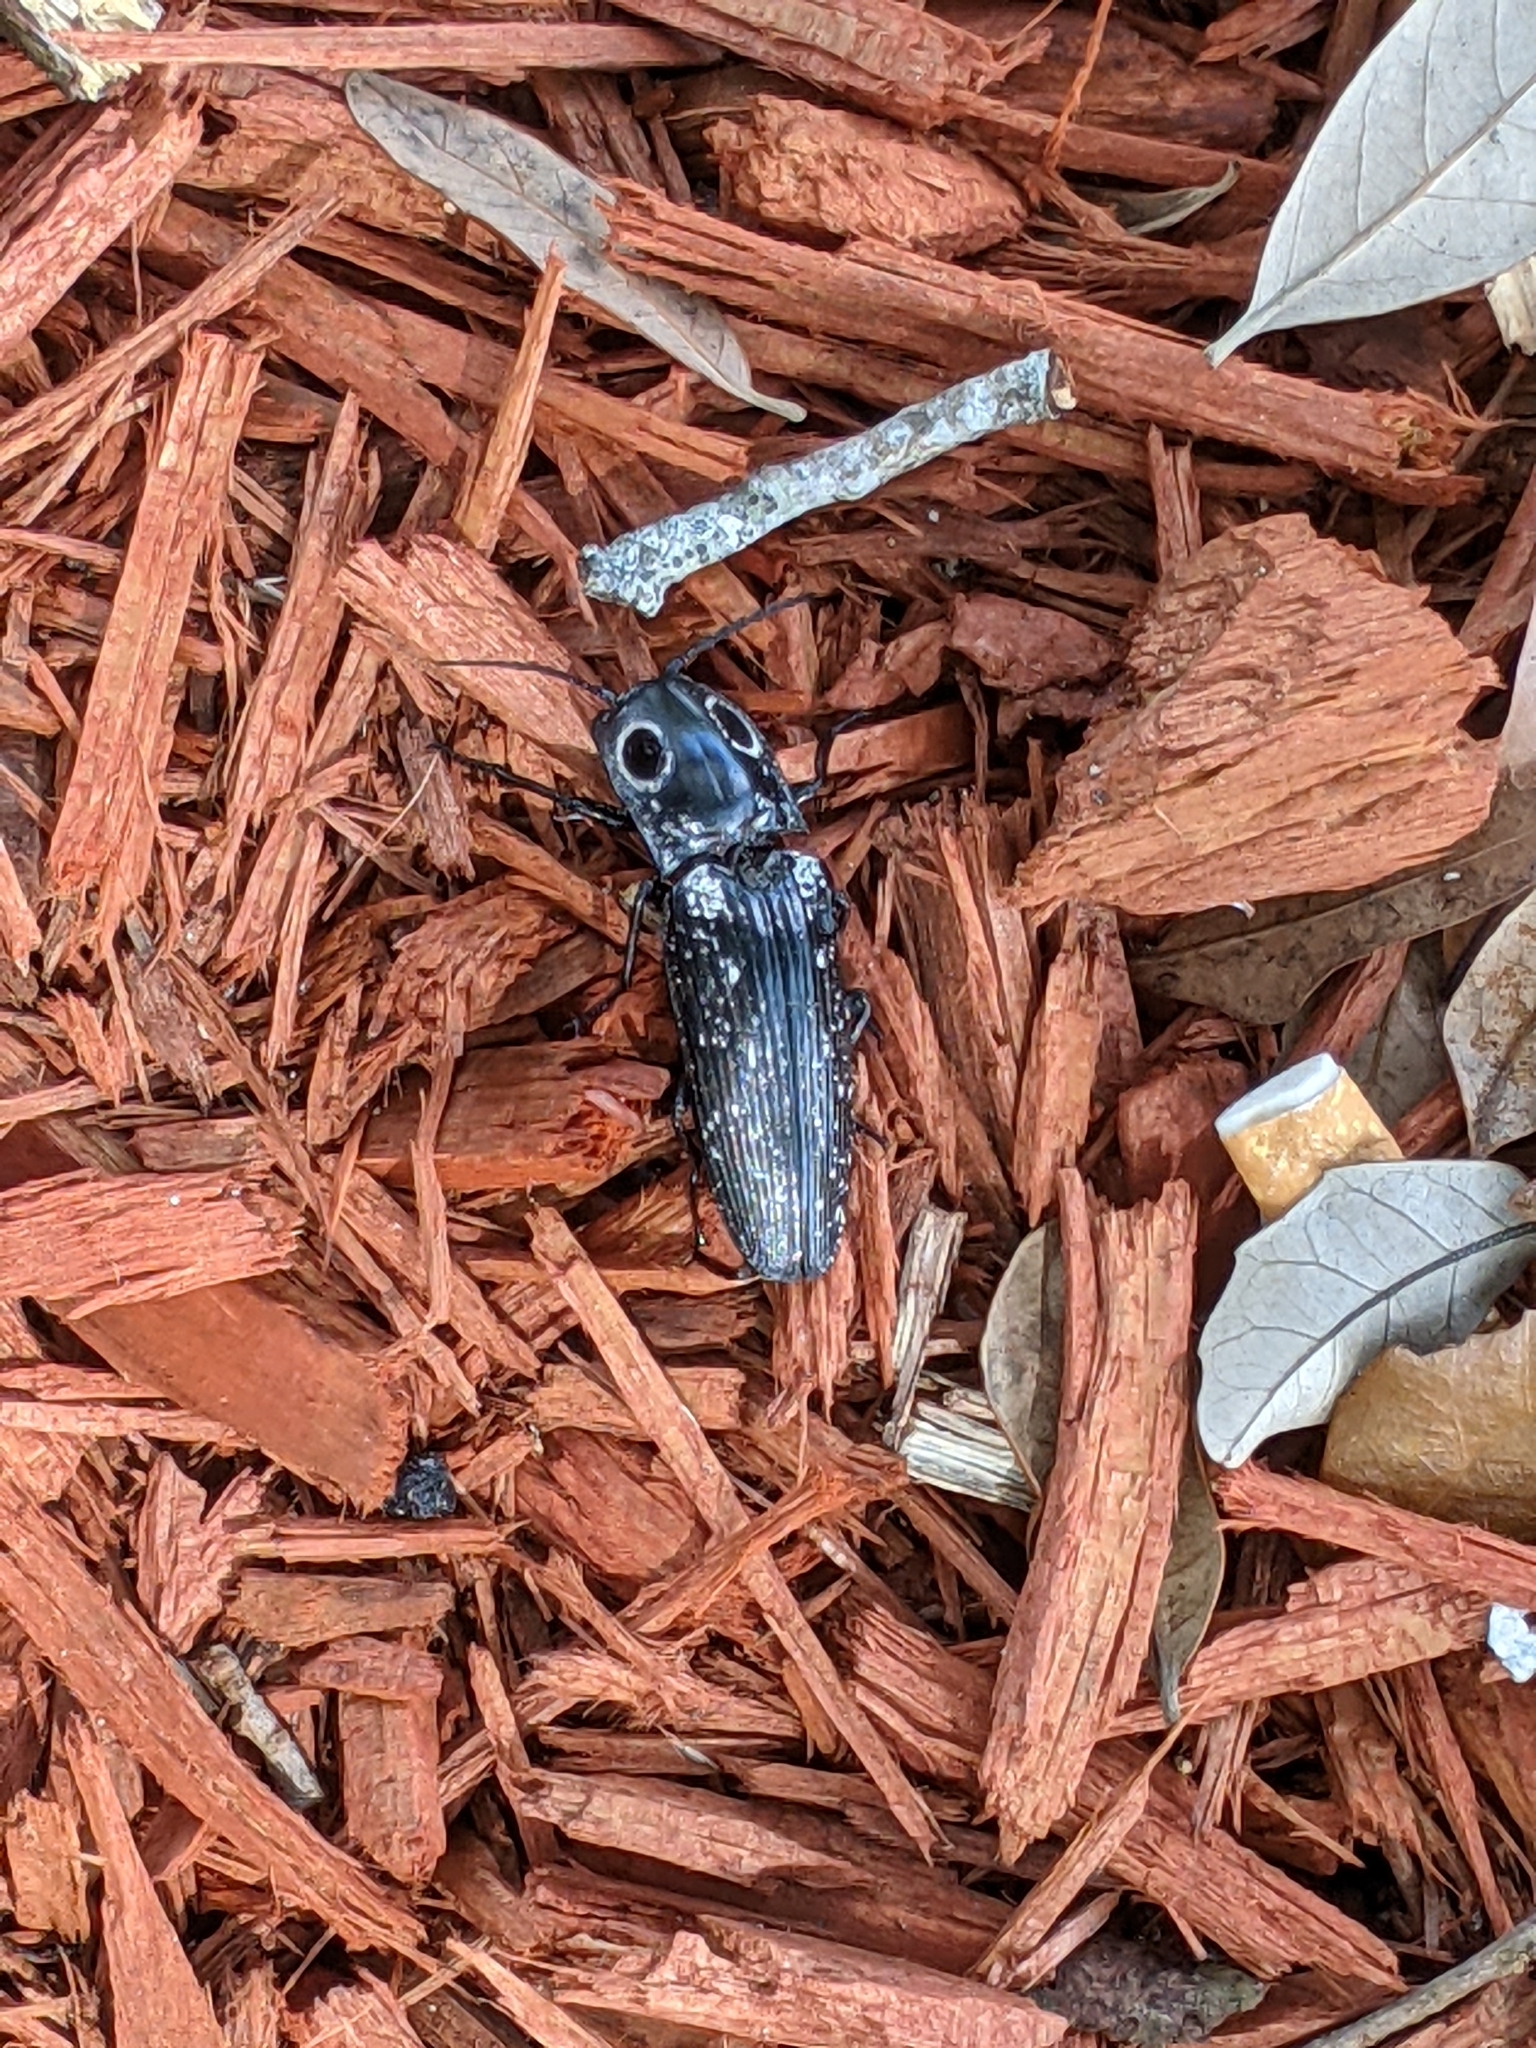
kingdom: Animalia
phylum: Arthropoda
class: Insecta
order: Coleoptera
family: Elateridae
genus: Alaus
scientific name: Alaus oculatus
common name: Eastern eyed click beetle
